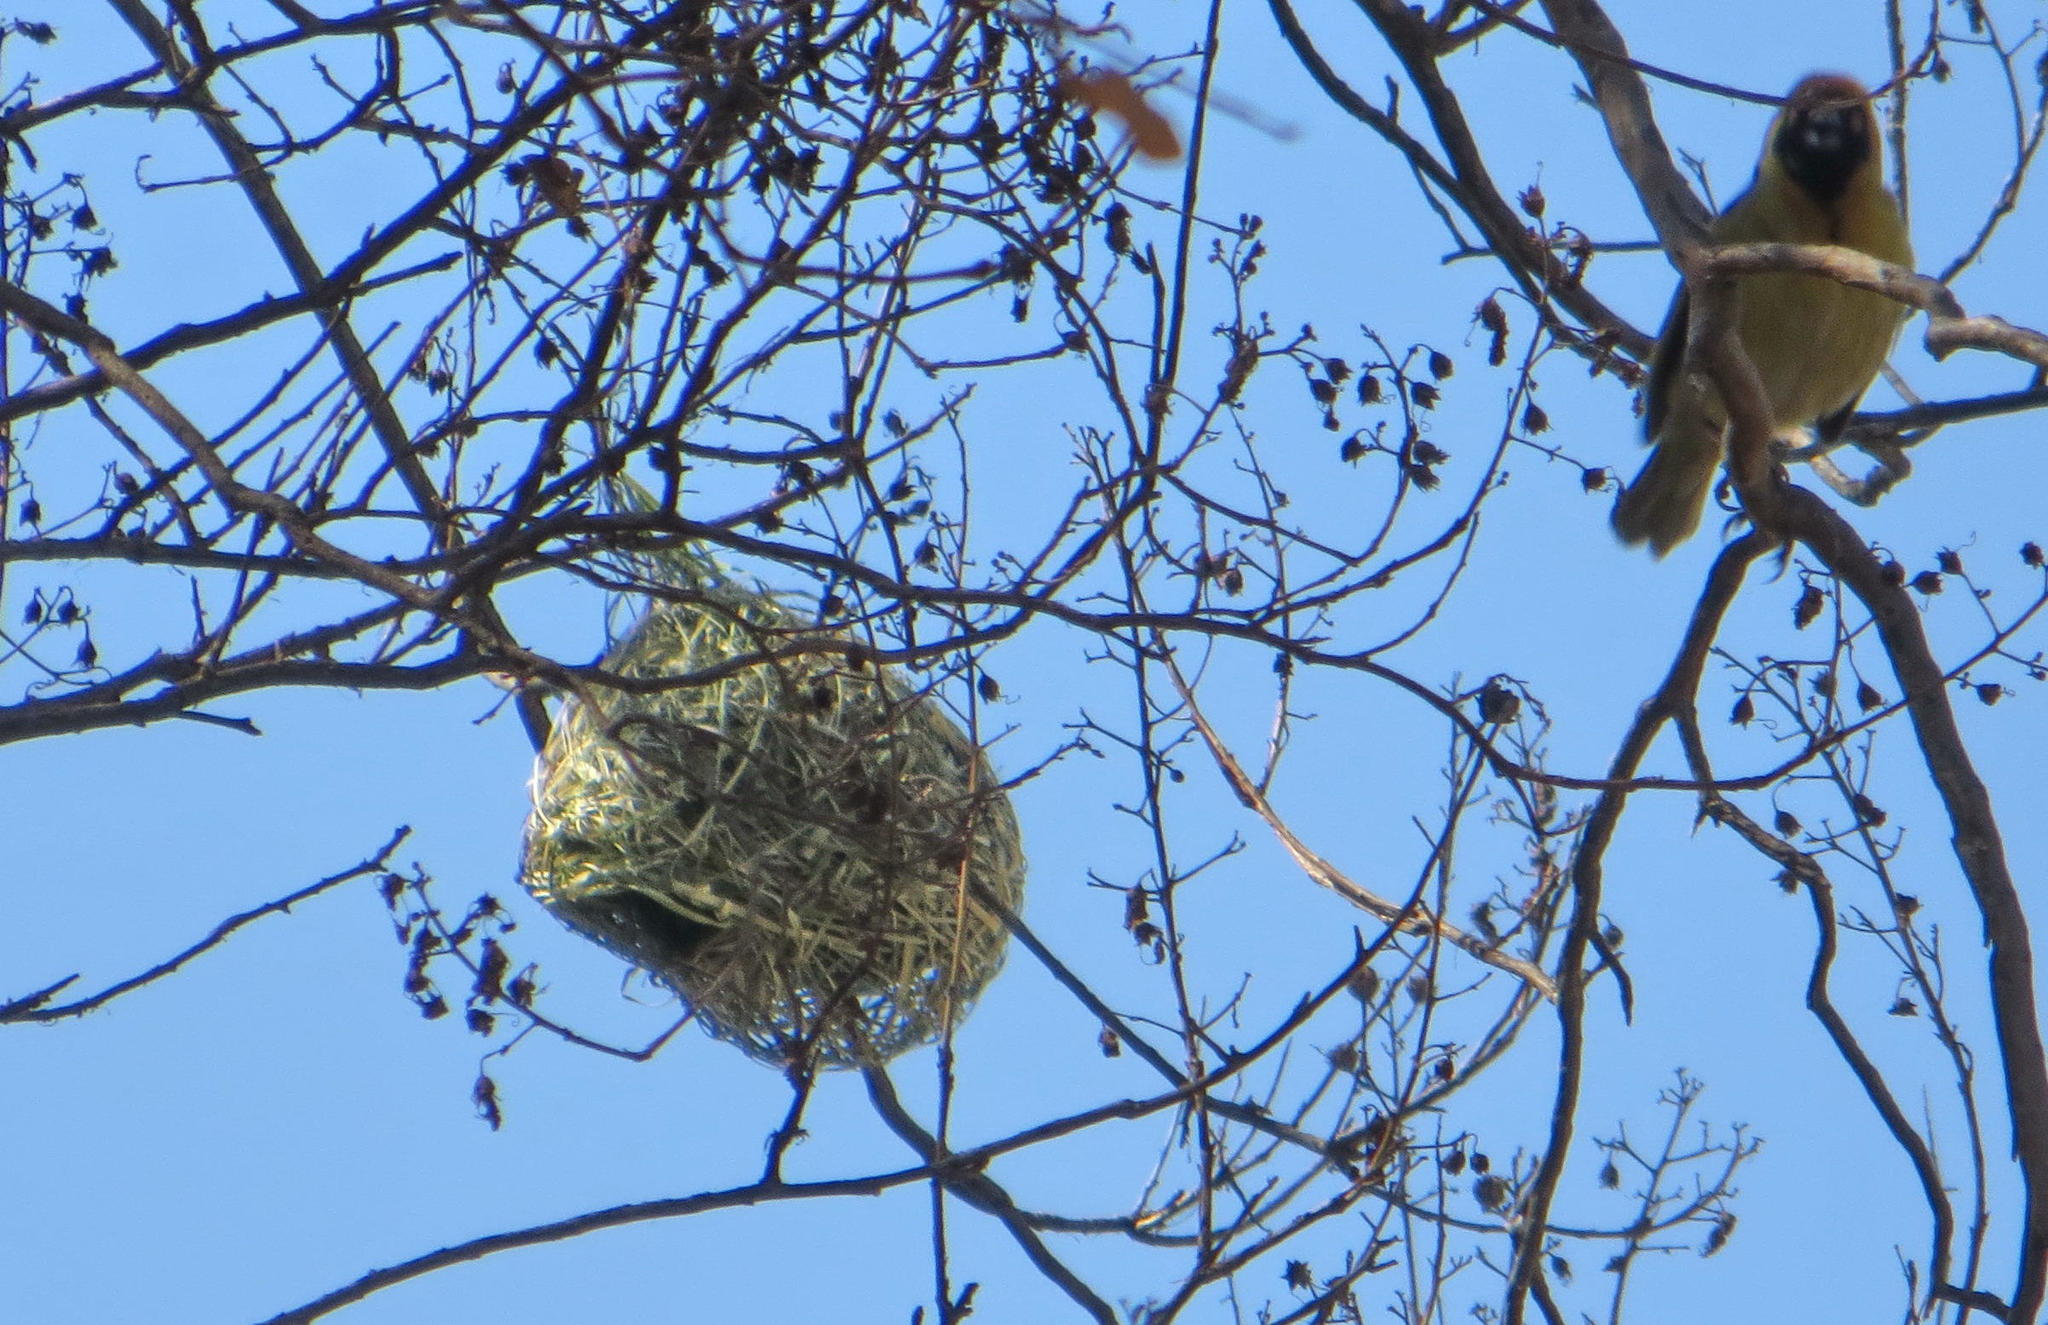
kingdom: Animalia
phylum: Chordata
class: Aves
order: Passeriformes
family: Ploceidae
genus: Ploceus
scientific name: Ploceus velatus
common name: Southern masked weaver
